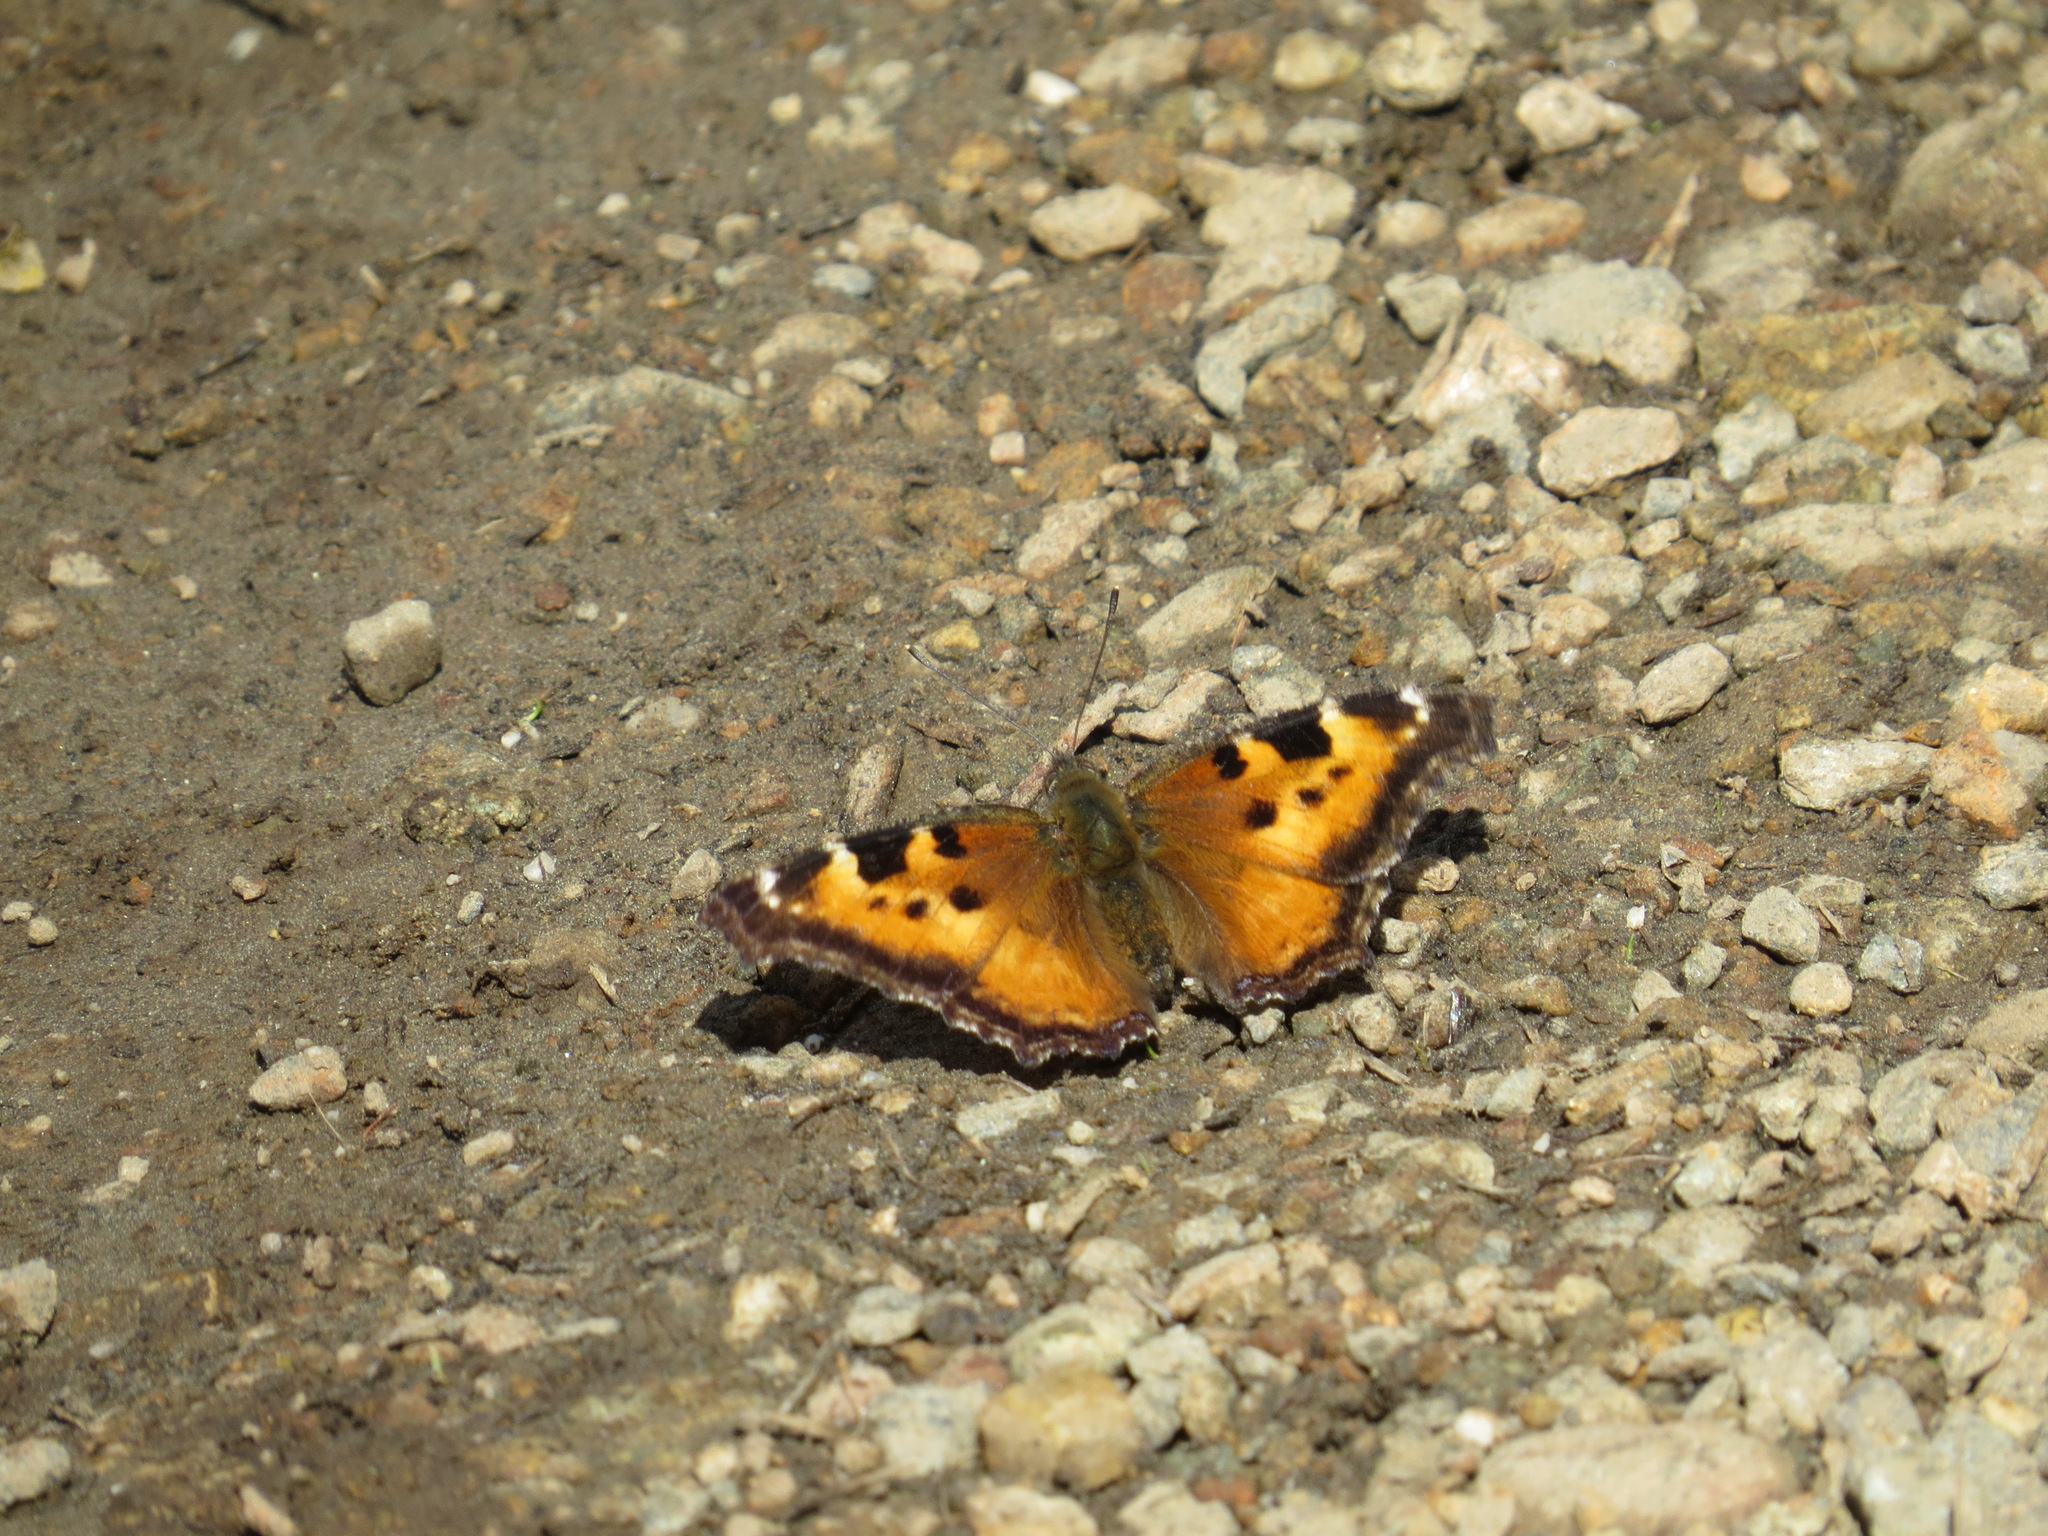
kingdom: Animalia
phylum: Arthropoda
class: Insecta
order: Lepidoptera
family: Nymphalidae
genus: Nymphalis
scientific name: Nymphalis californica
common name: California tortoiseshell
